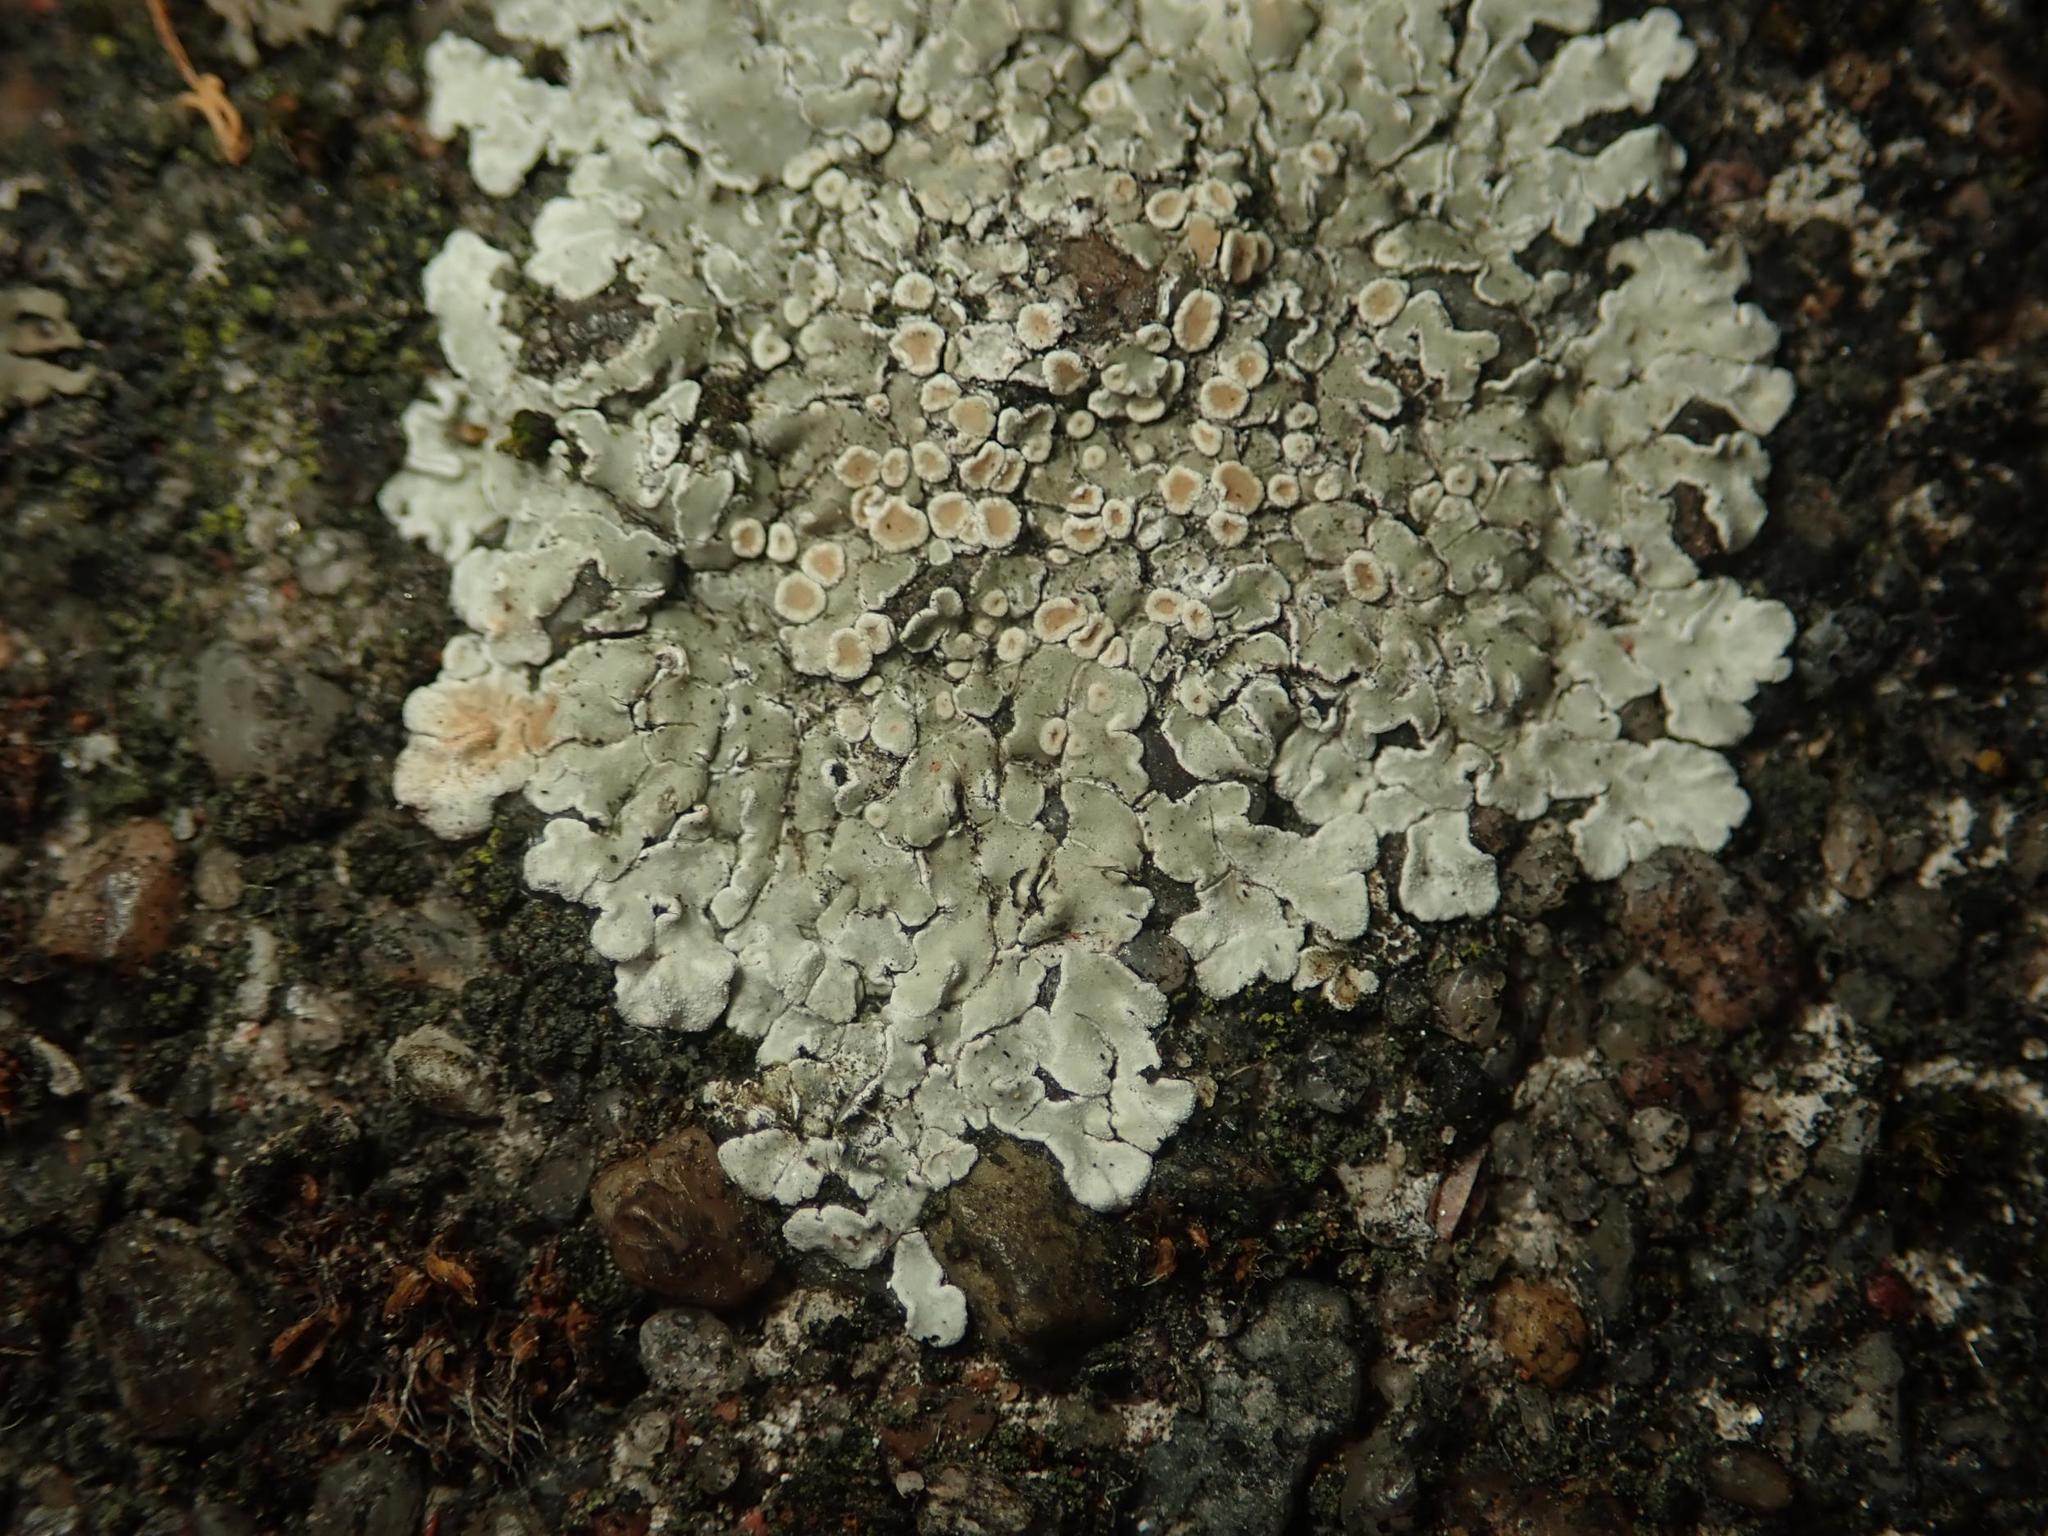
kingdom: Fungi
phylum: Ascomycota
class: Lecanoromycetes
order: Lecanorales
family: Lecanoraceae
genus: Protoparmeliopsis
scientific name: Protoparmeliopsis muralis
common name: Stonewall rim lichen
